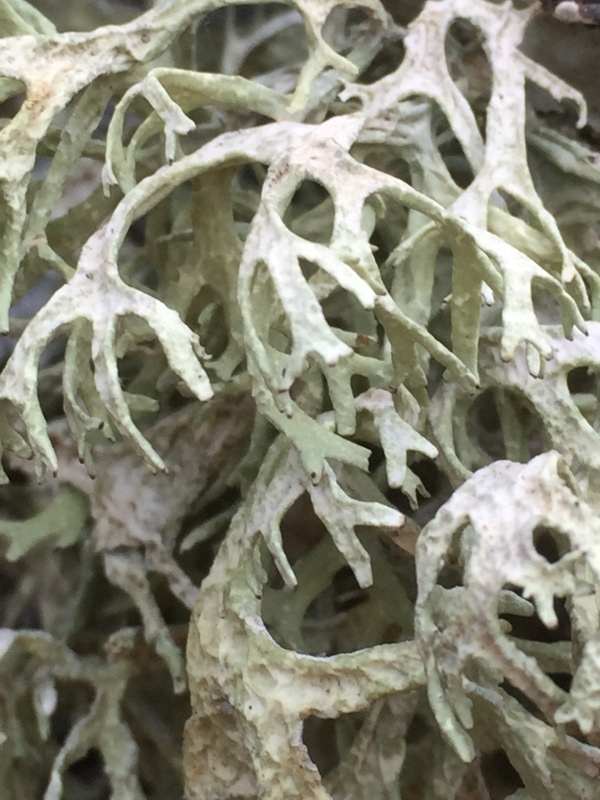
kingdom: Fungi
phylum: Ascomycota
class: Lecanoromycetes
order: Lecanorales
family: Parmeliaceae
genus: Evernia
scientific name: Evernia prunastri
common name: Oak moss
